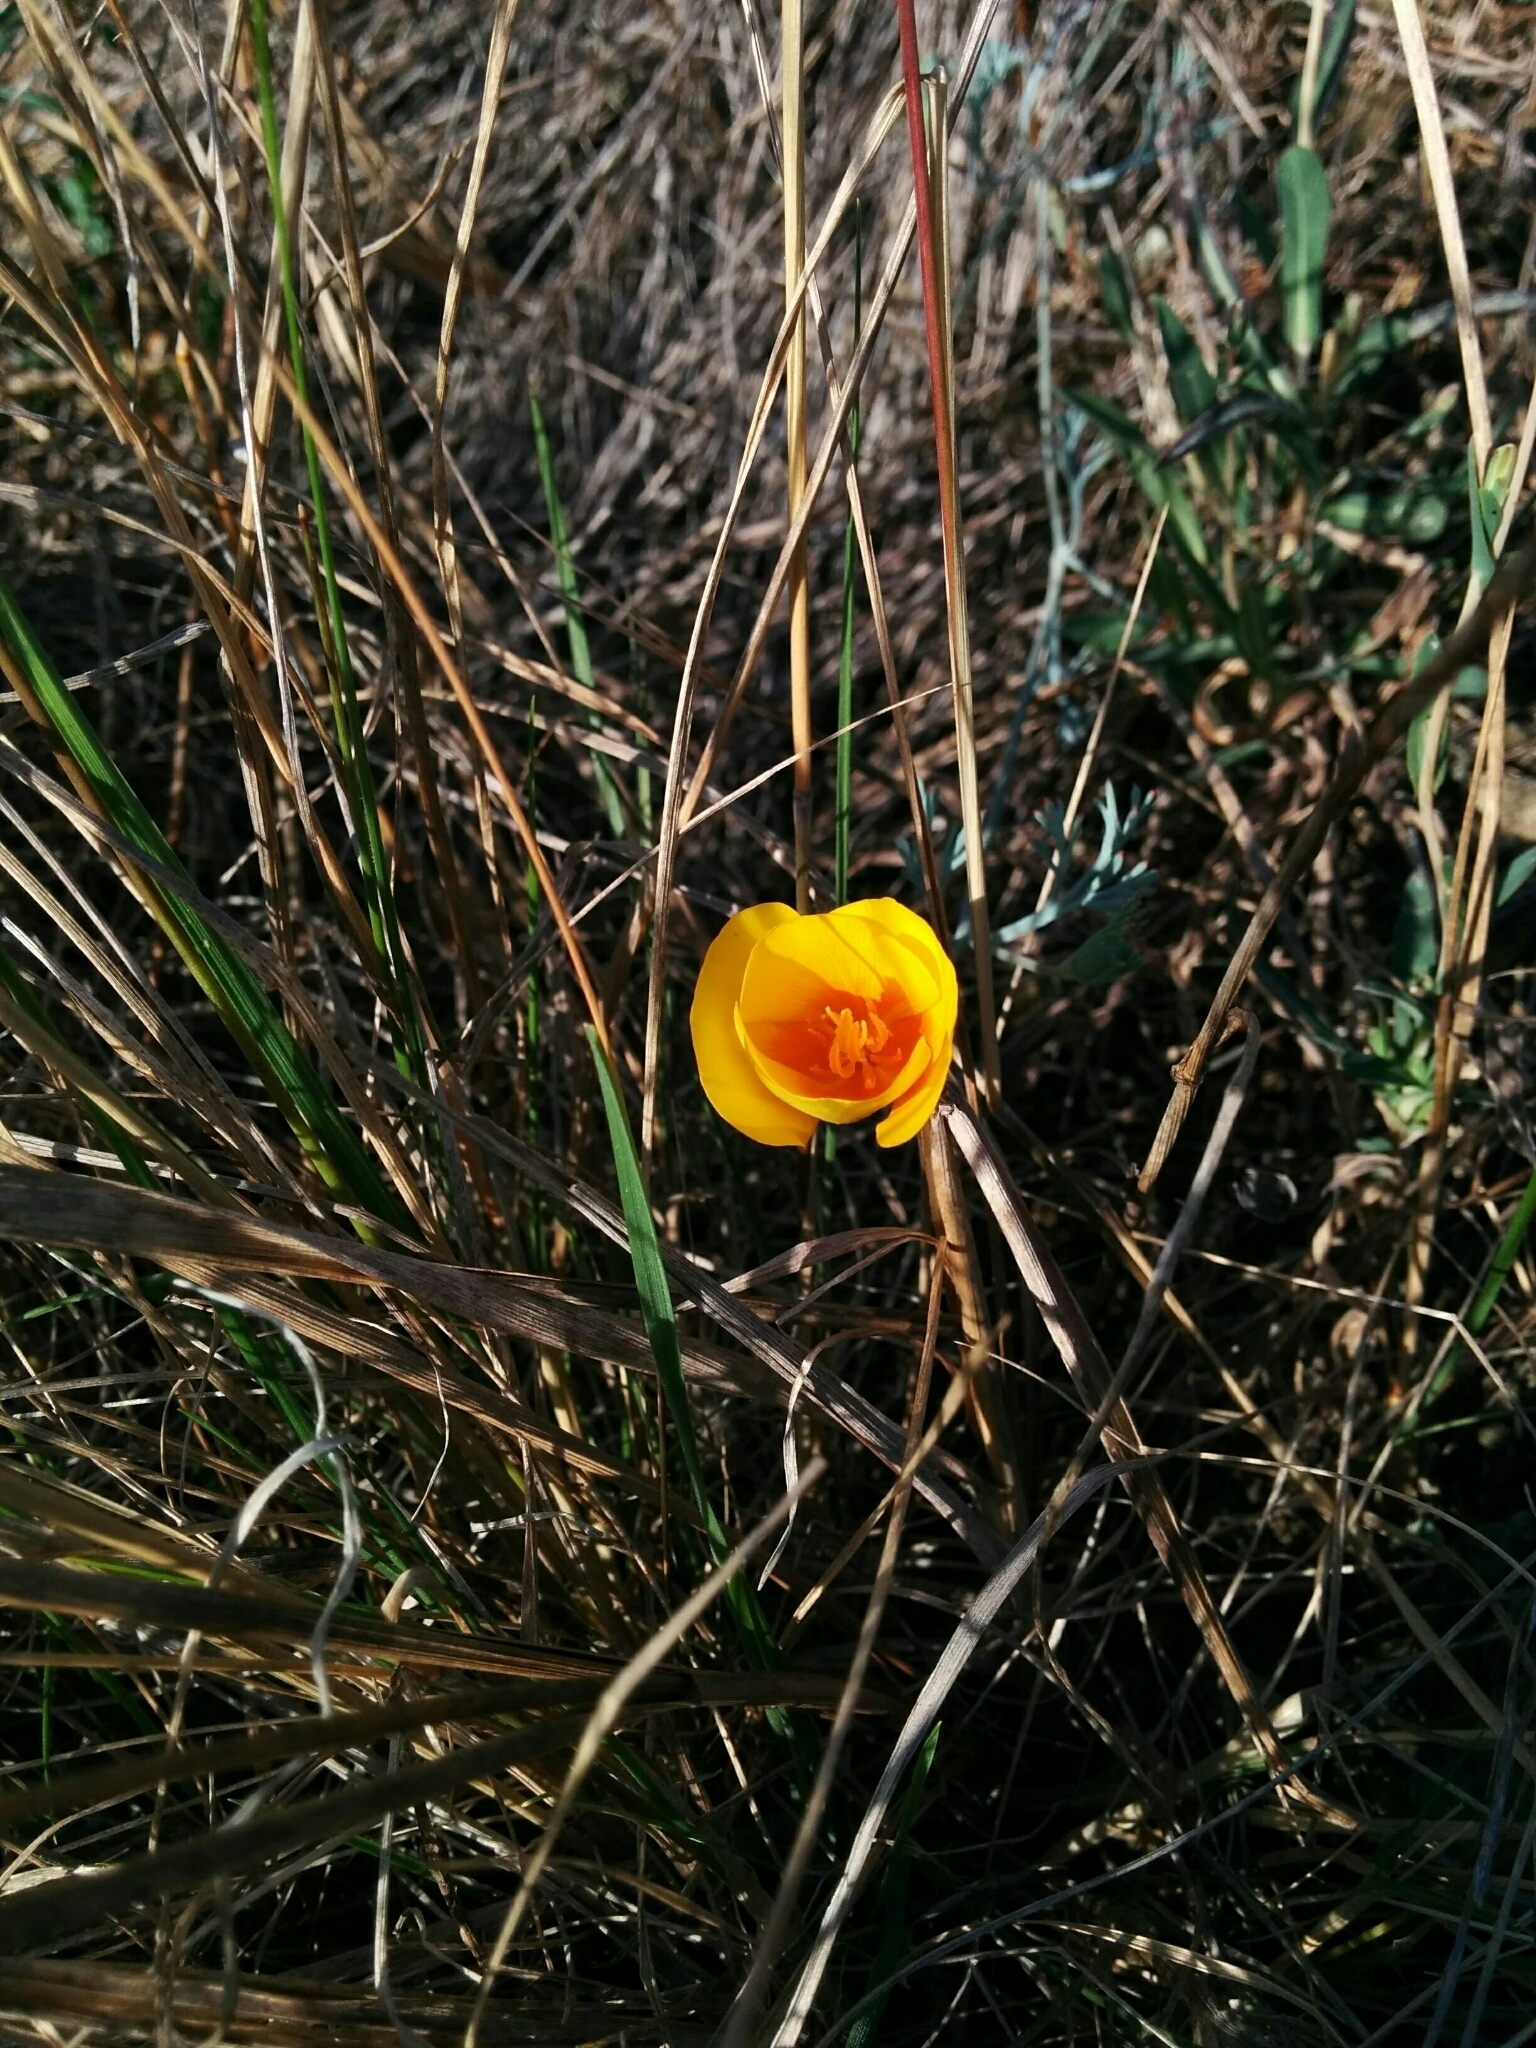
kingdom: Plantae
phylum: Tracheophyta
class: Magnoliopsida
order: Ranunculales
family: Papaveraceae
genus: Eschscholzia
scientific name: Eschscholzia californica
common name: California poppy
